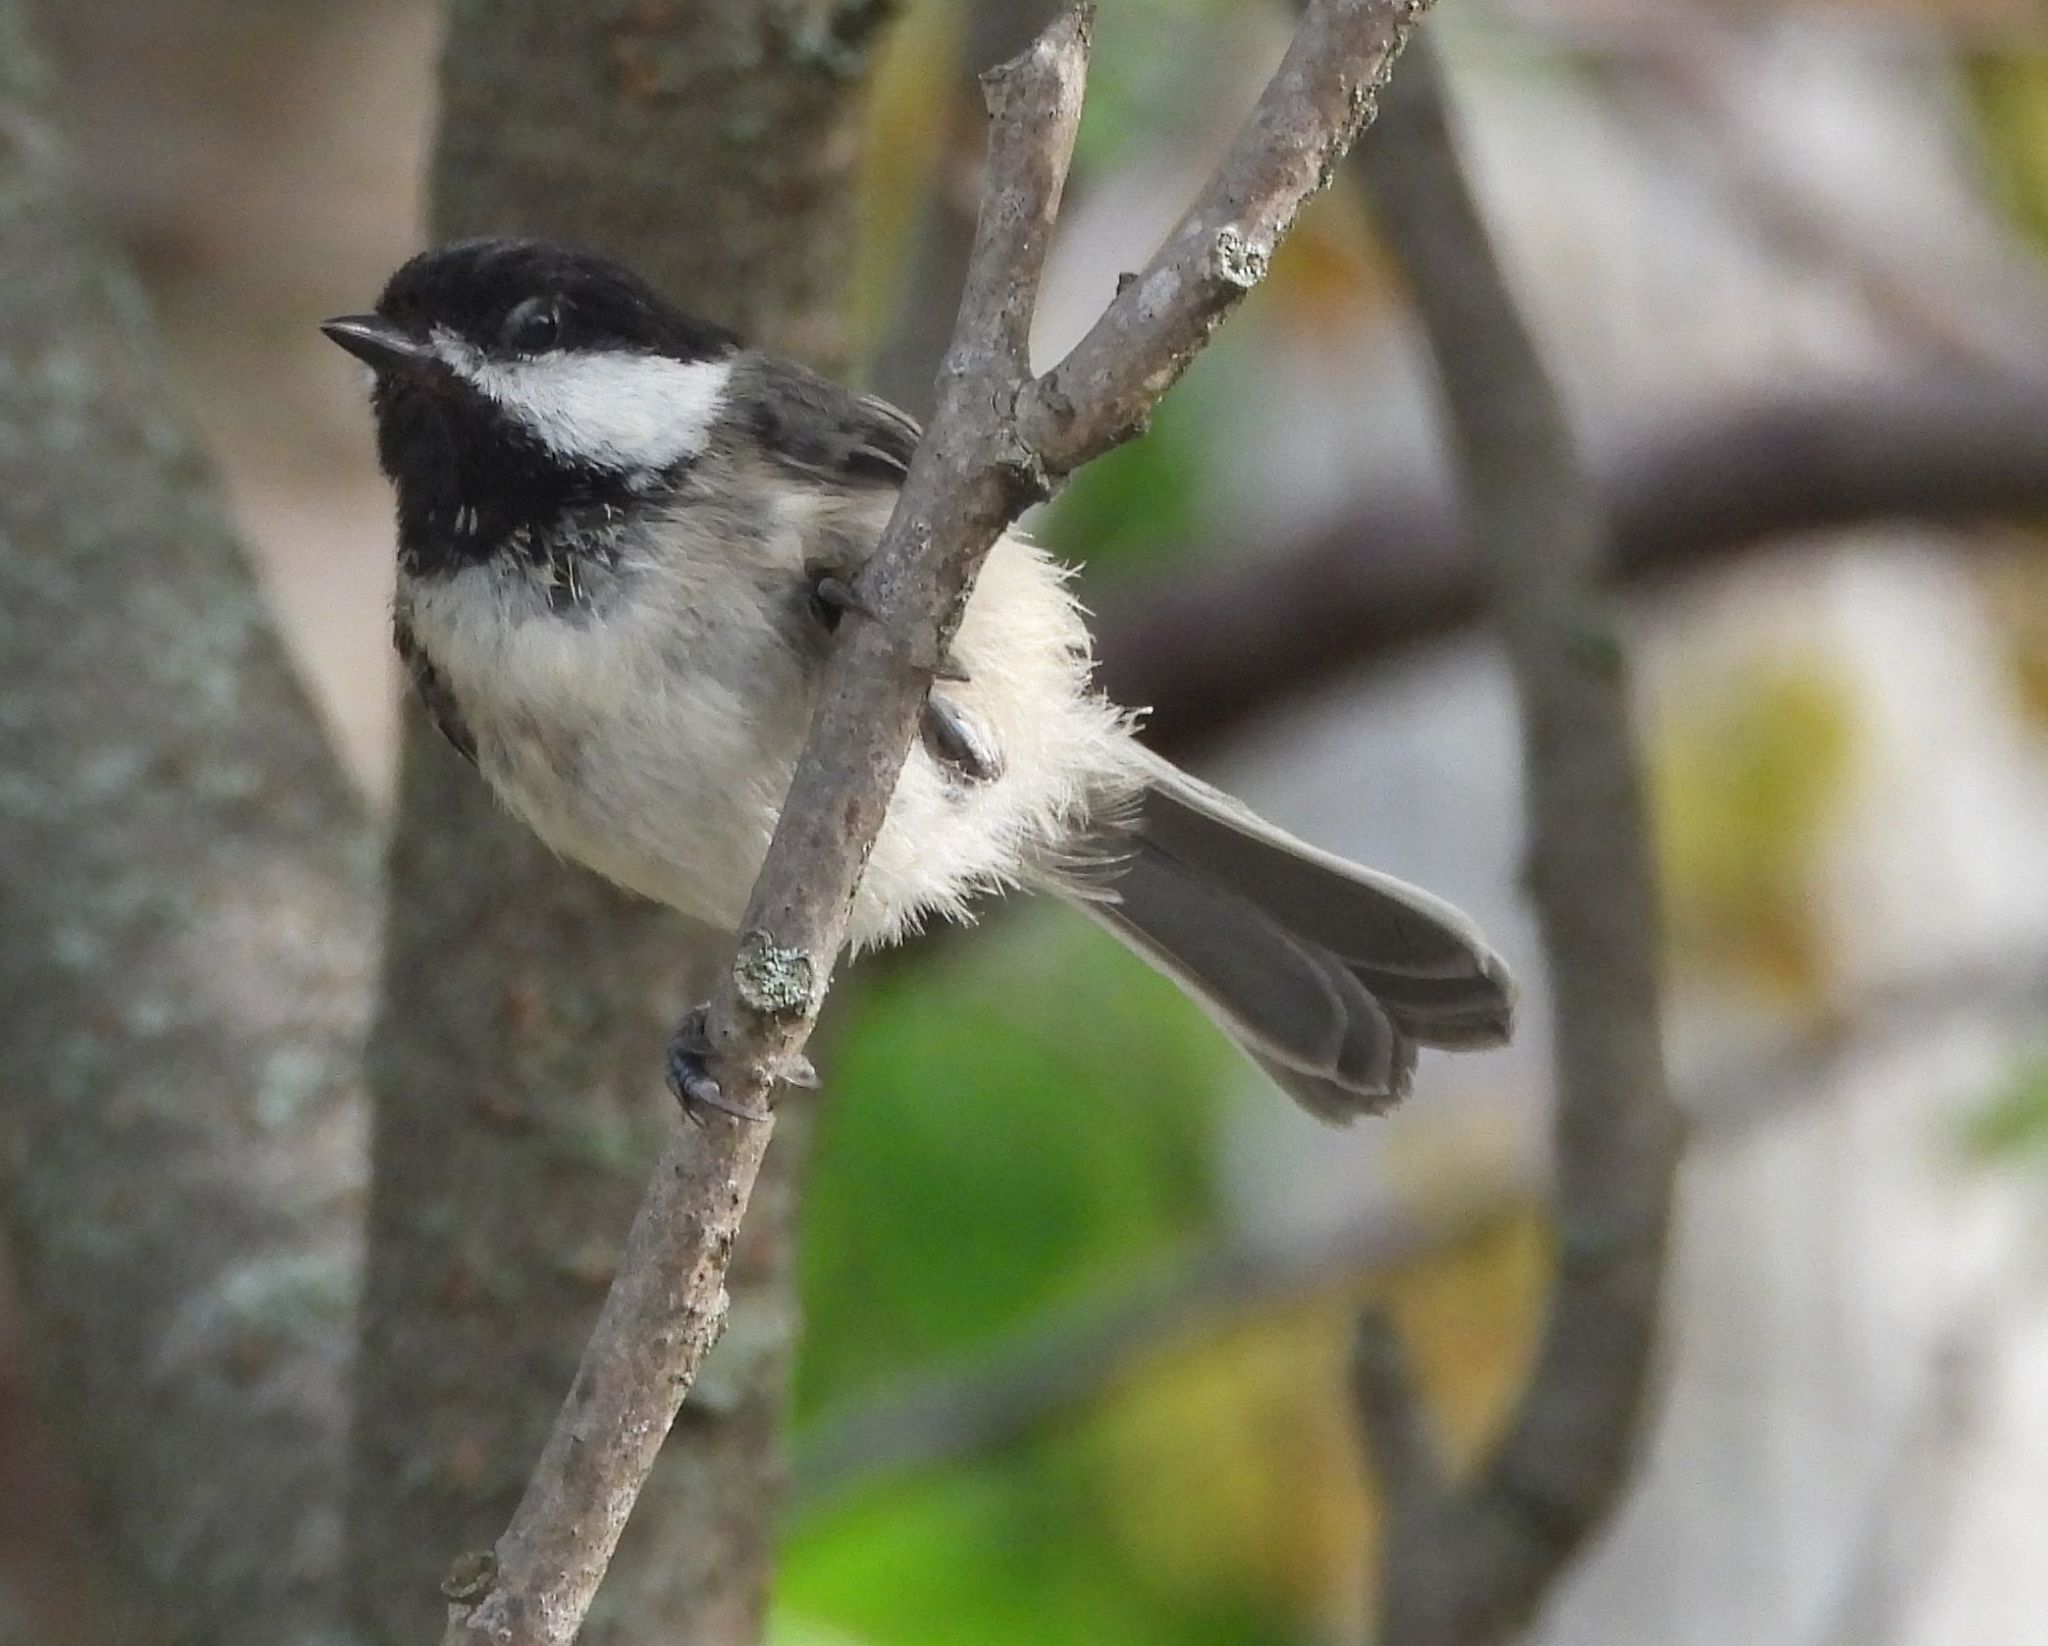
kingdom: Animalia
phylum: Chordata
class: Aves
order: Passeriformes
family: Paridae
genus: Poecile
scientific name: Poecile atricapillus
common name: Black-capped chickadee
